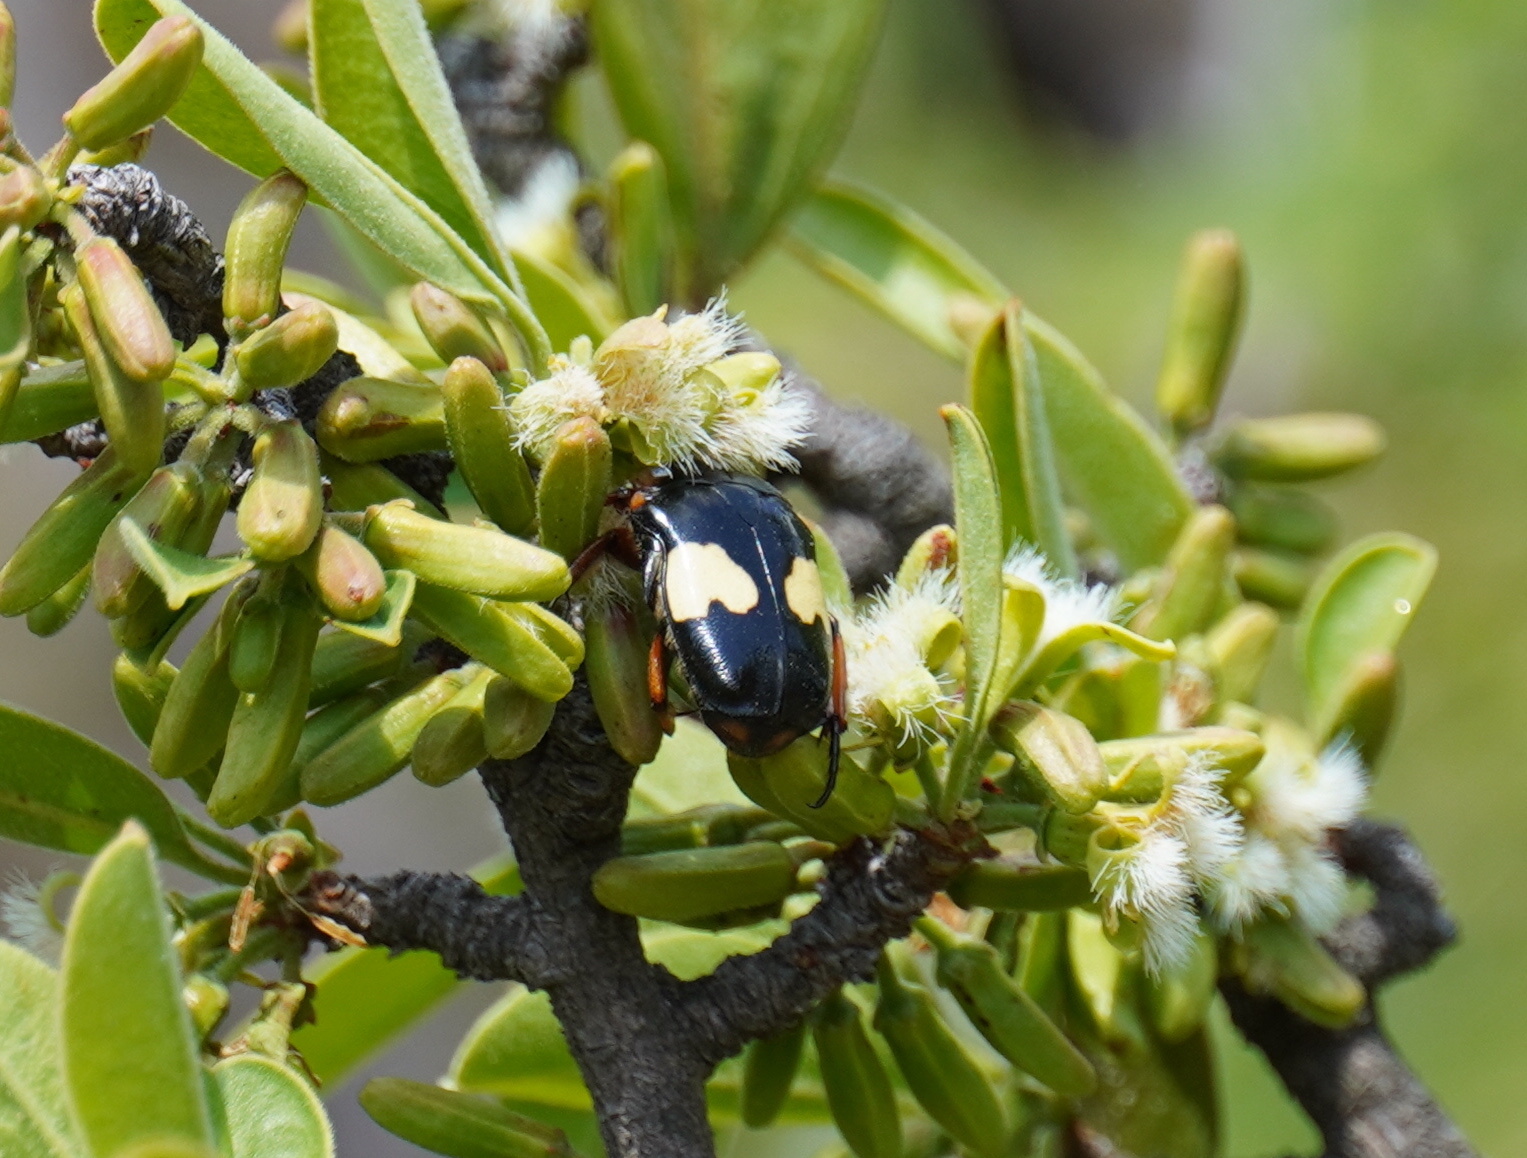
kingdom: Animalia
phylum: Arthropoda
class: Insecta
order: Coleoptera
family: Scarabaeidae
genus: Pedinorrhina
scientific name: Pedinorrhina
